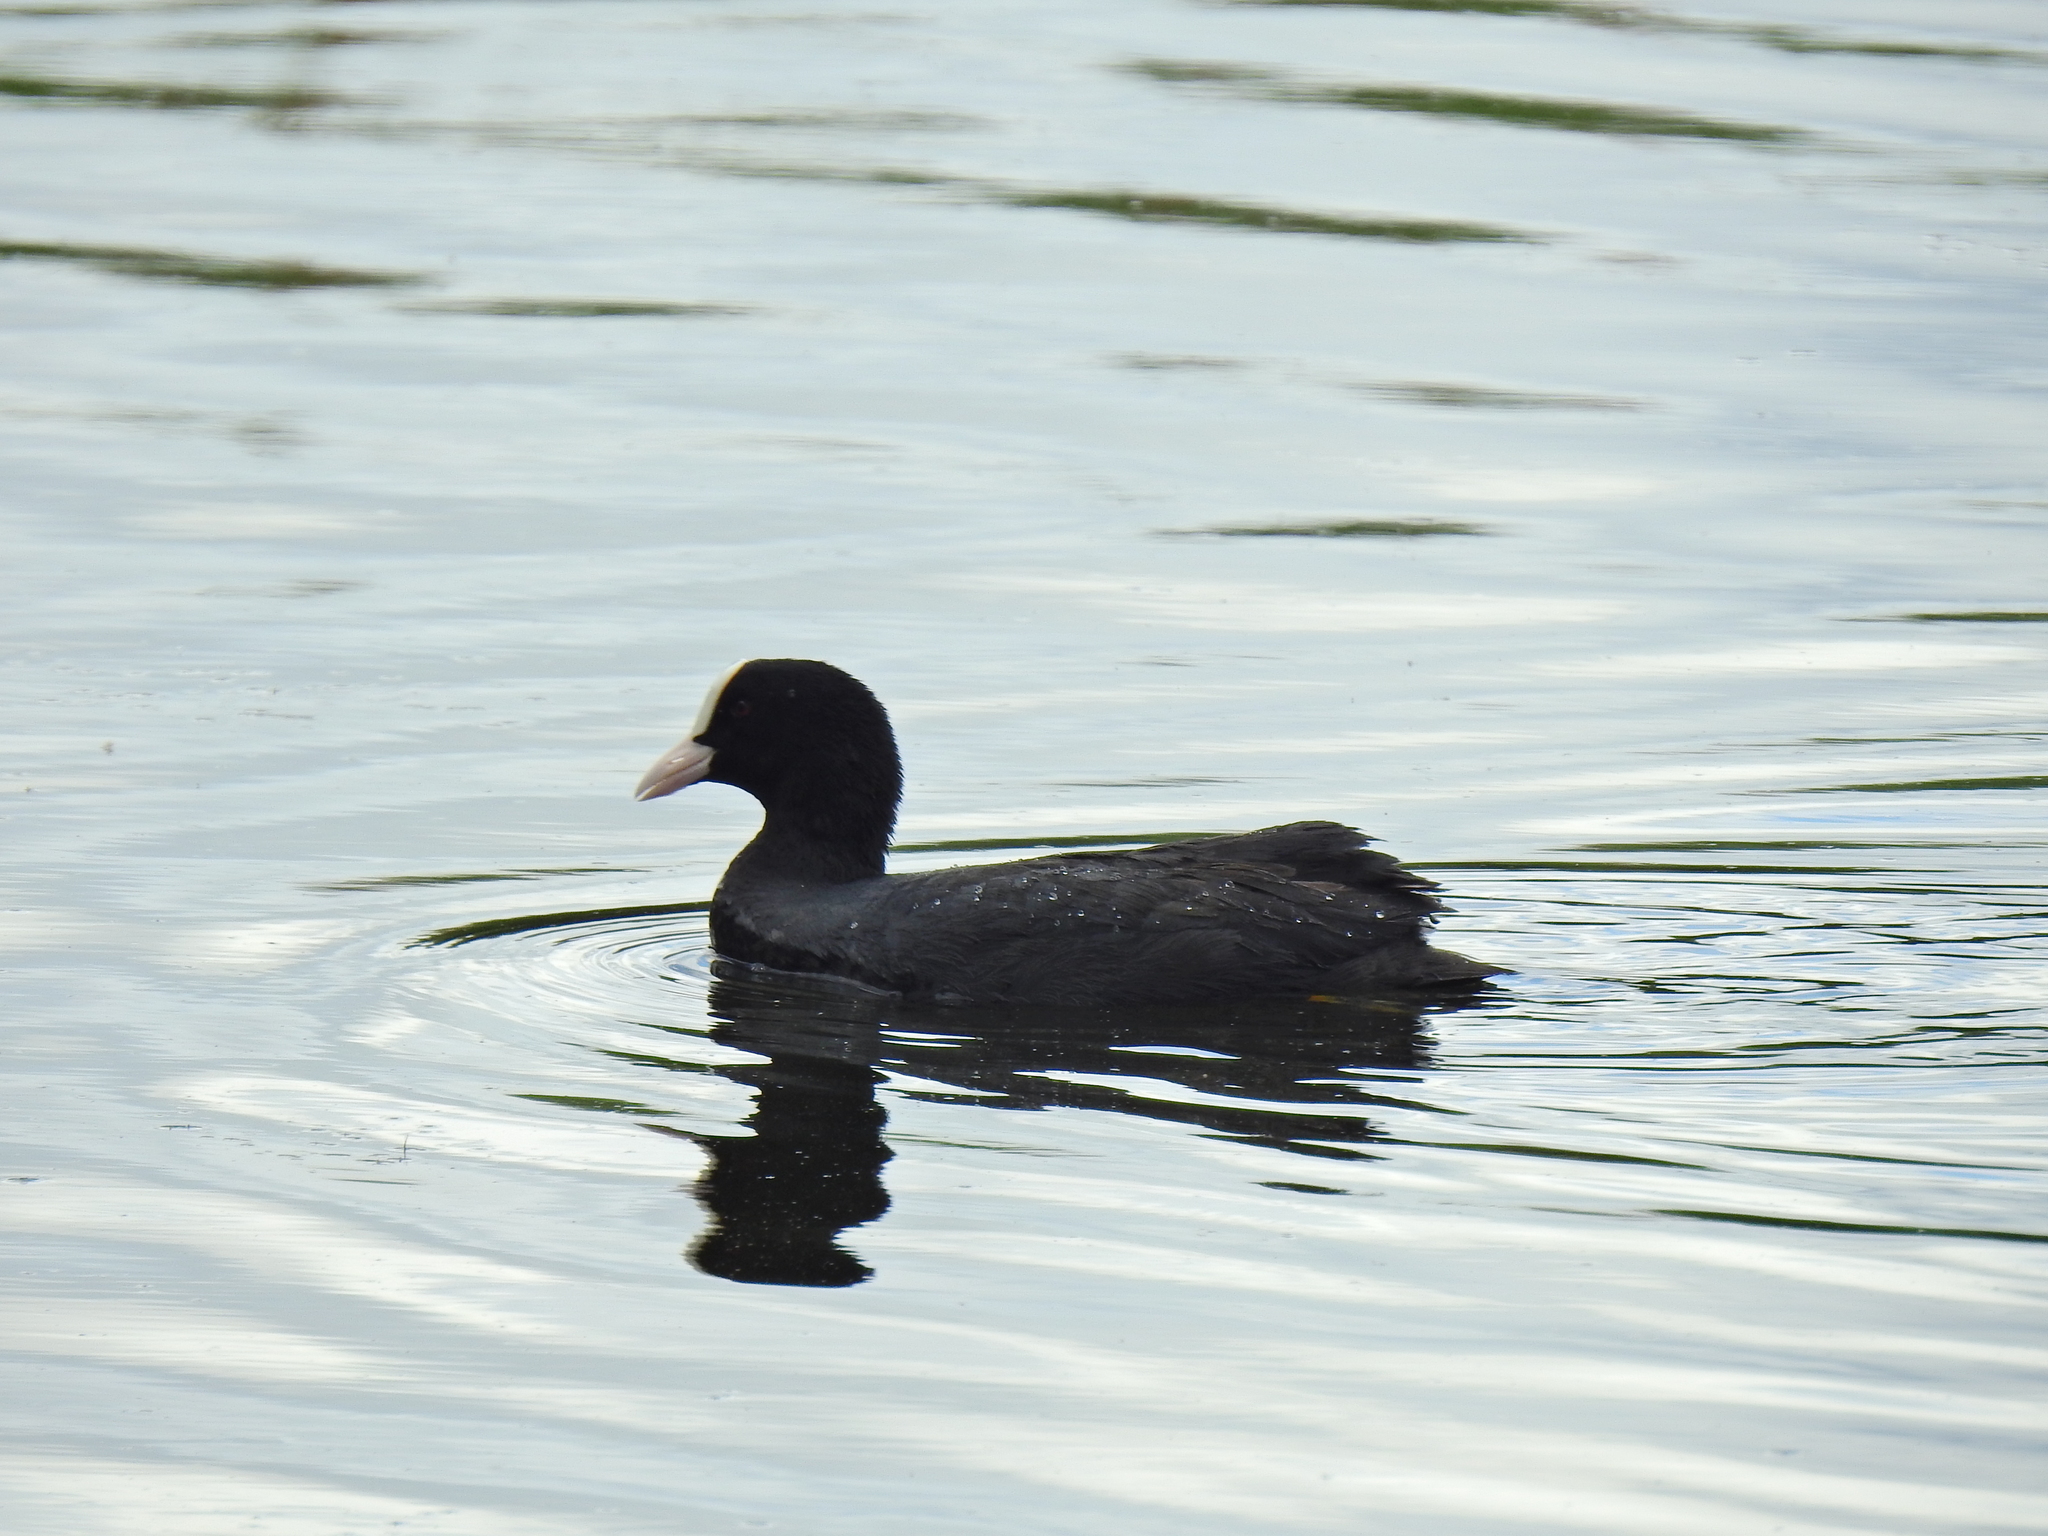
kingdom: Animalia
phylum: Chordata
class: Aves
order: Gruiformes
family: Rallidae
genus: Fulica
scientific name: Fulica atra
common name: Eurasian coot
